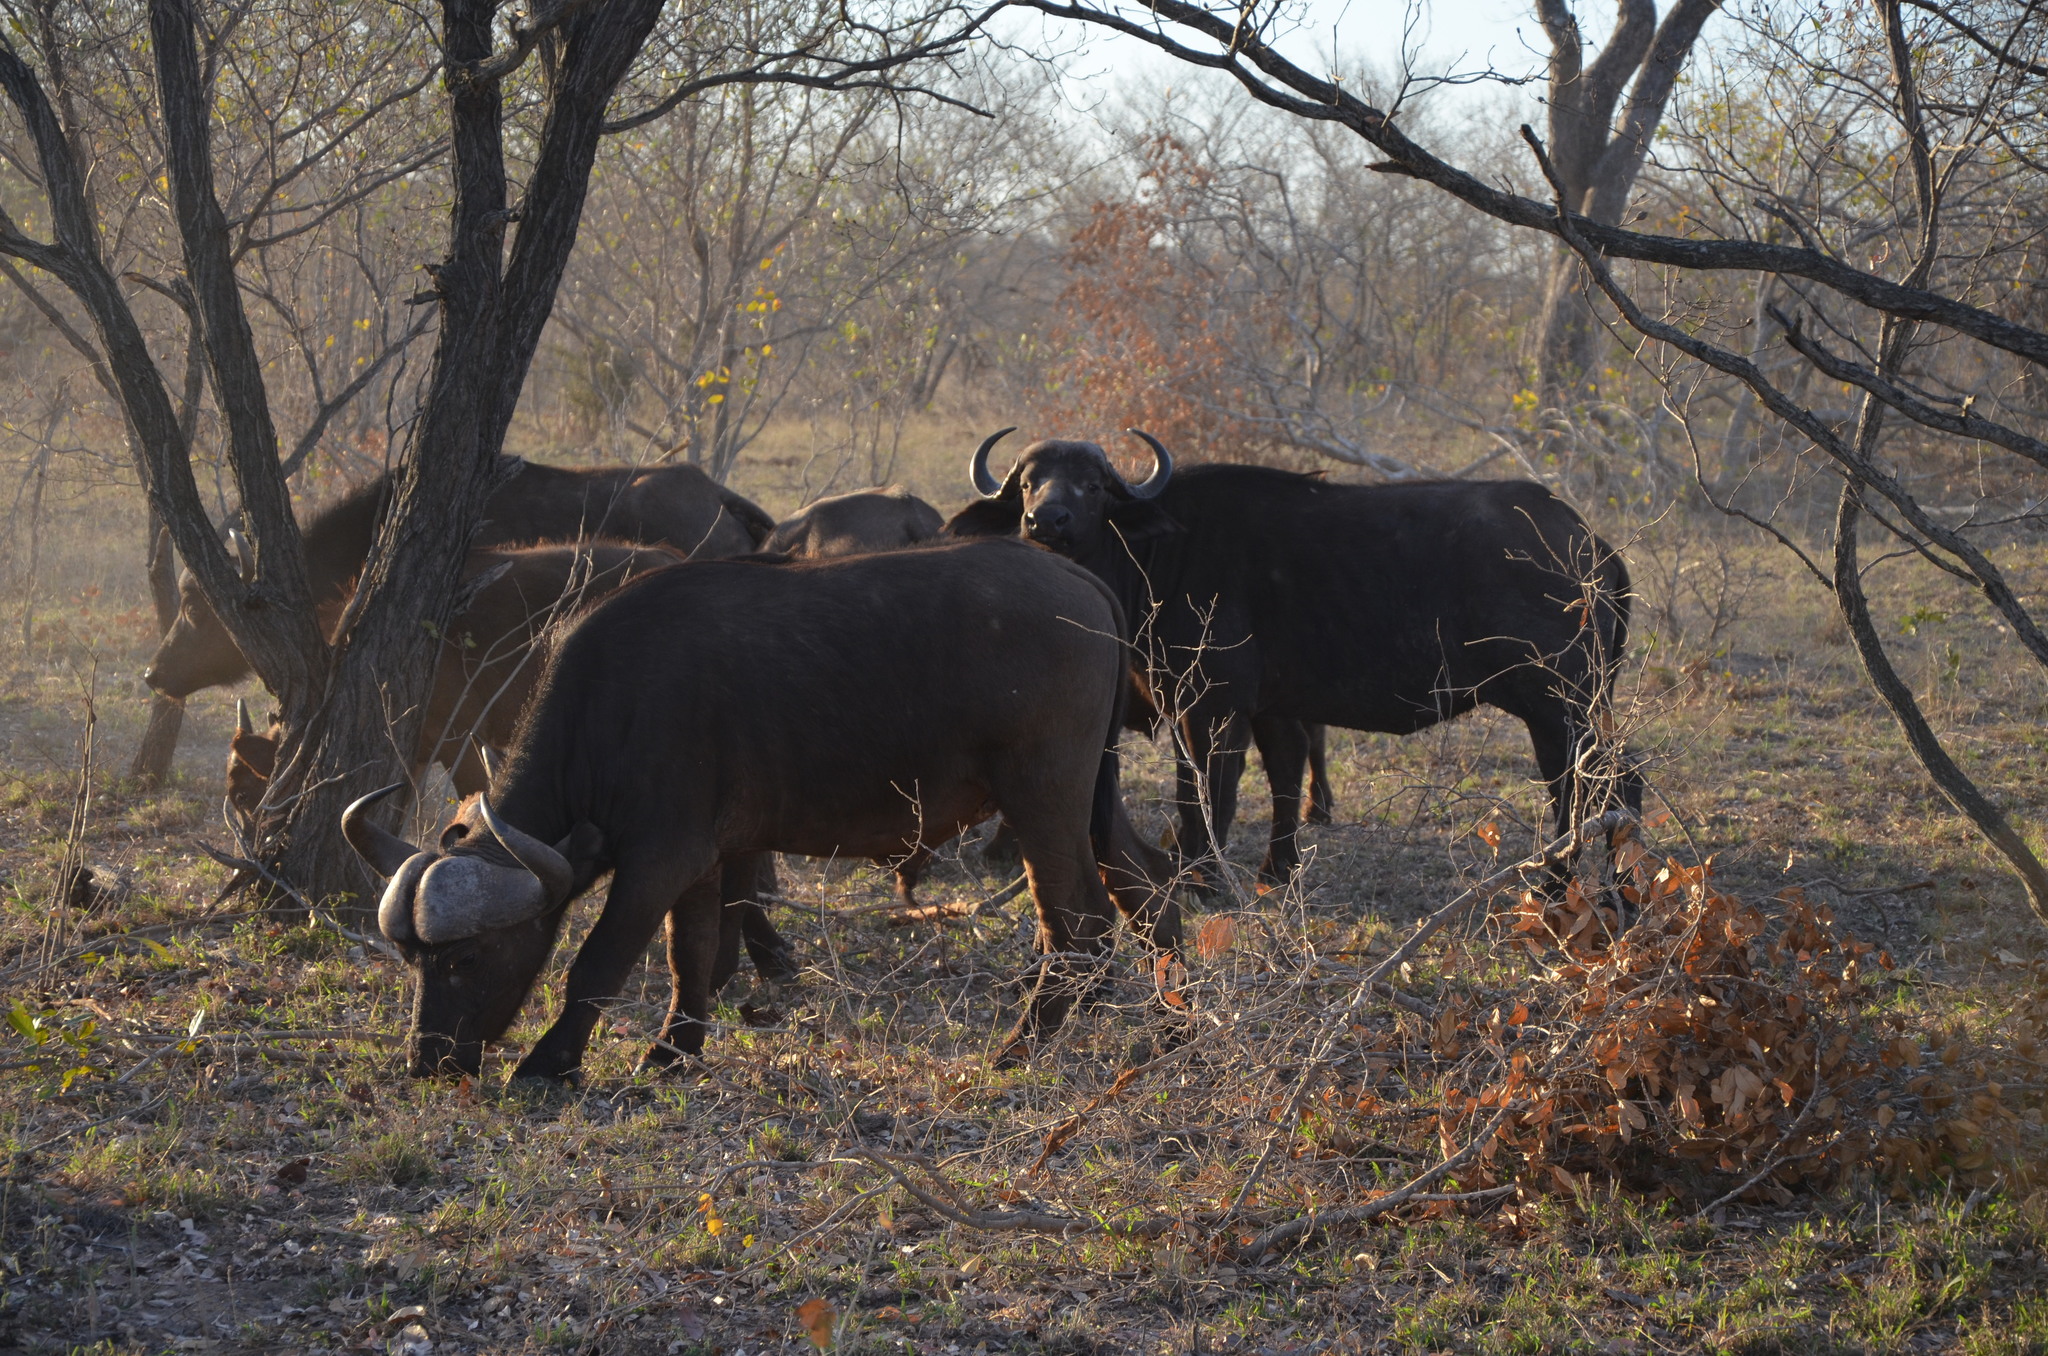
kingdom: Animalia
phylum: Chordata
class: Mammalia
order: Artiodactyla
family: Bovidae
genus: Syncerus
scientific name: Syncerus caffer
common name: African buffalo
